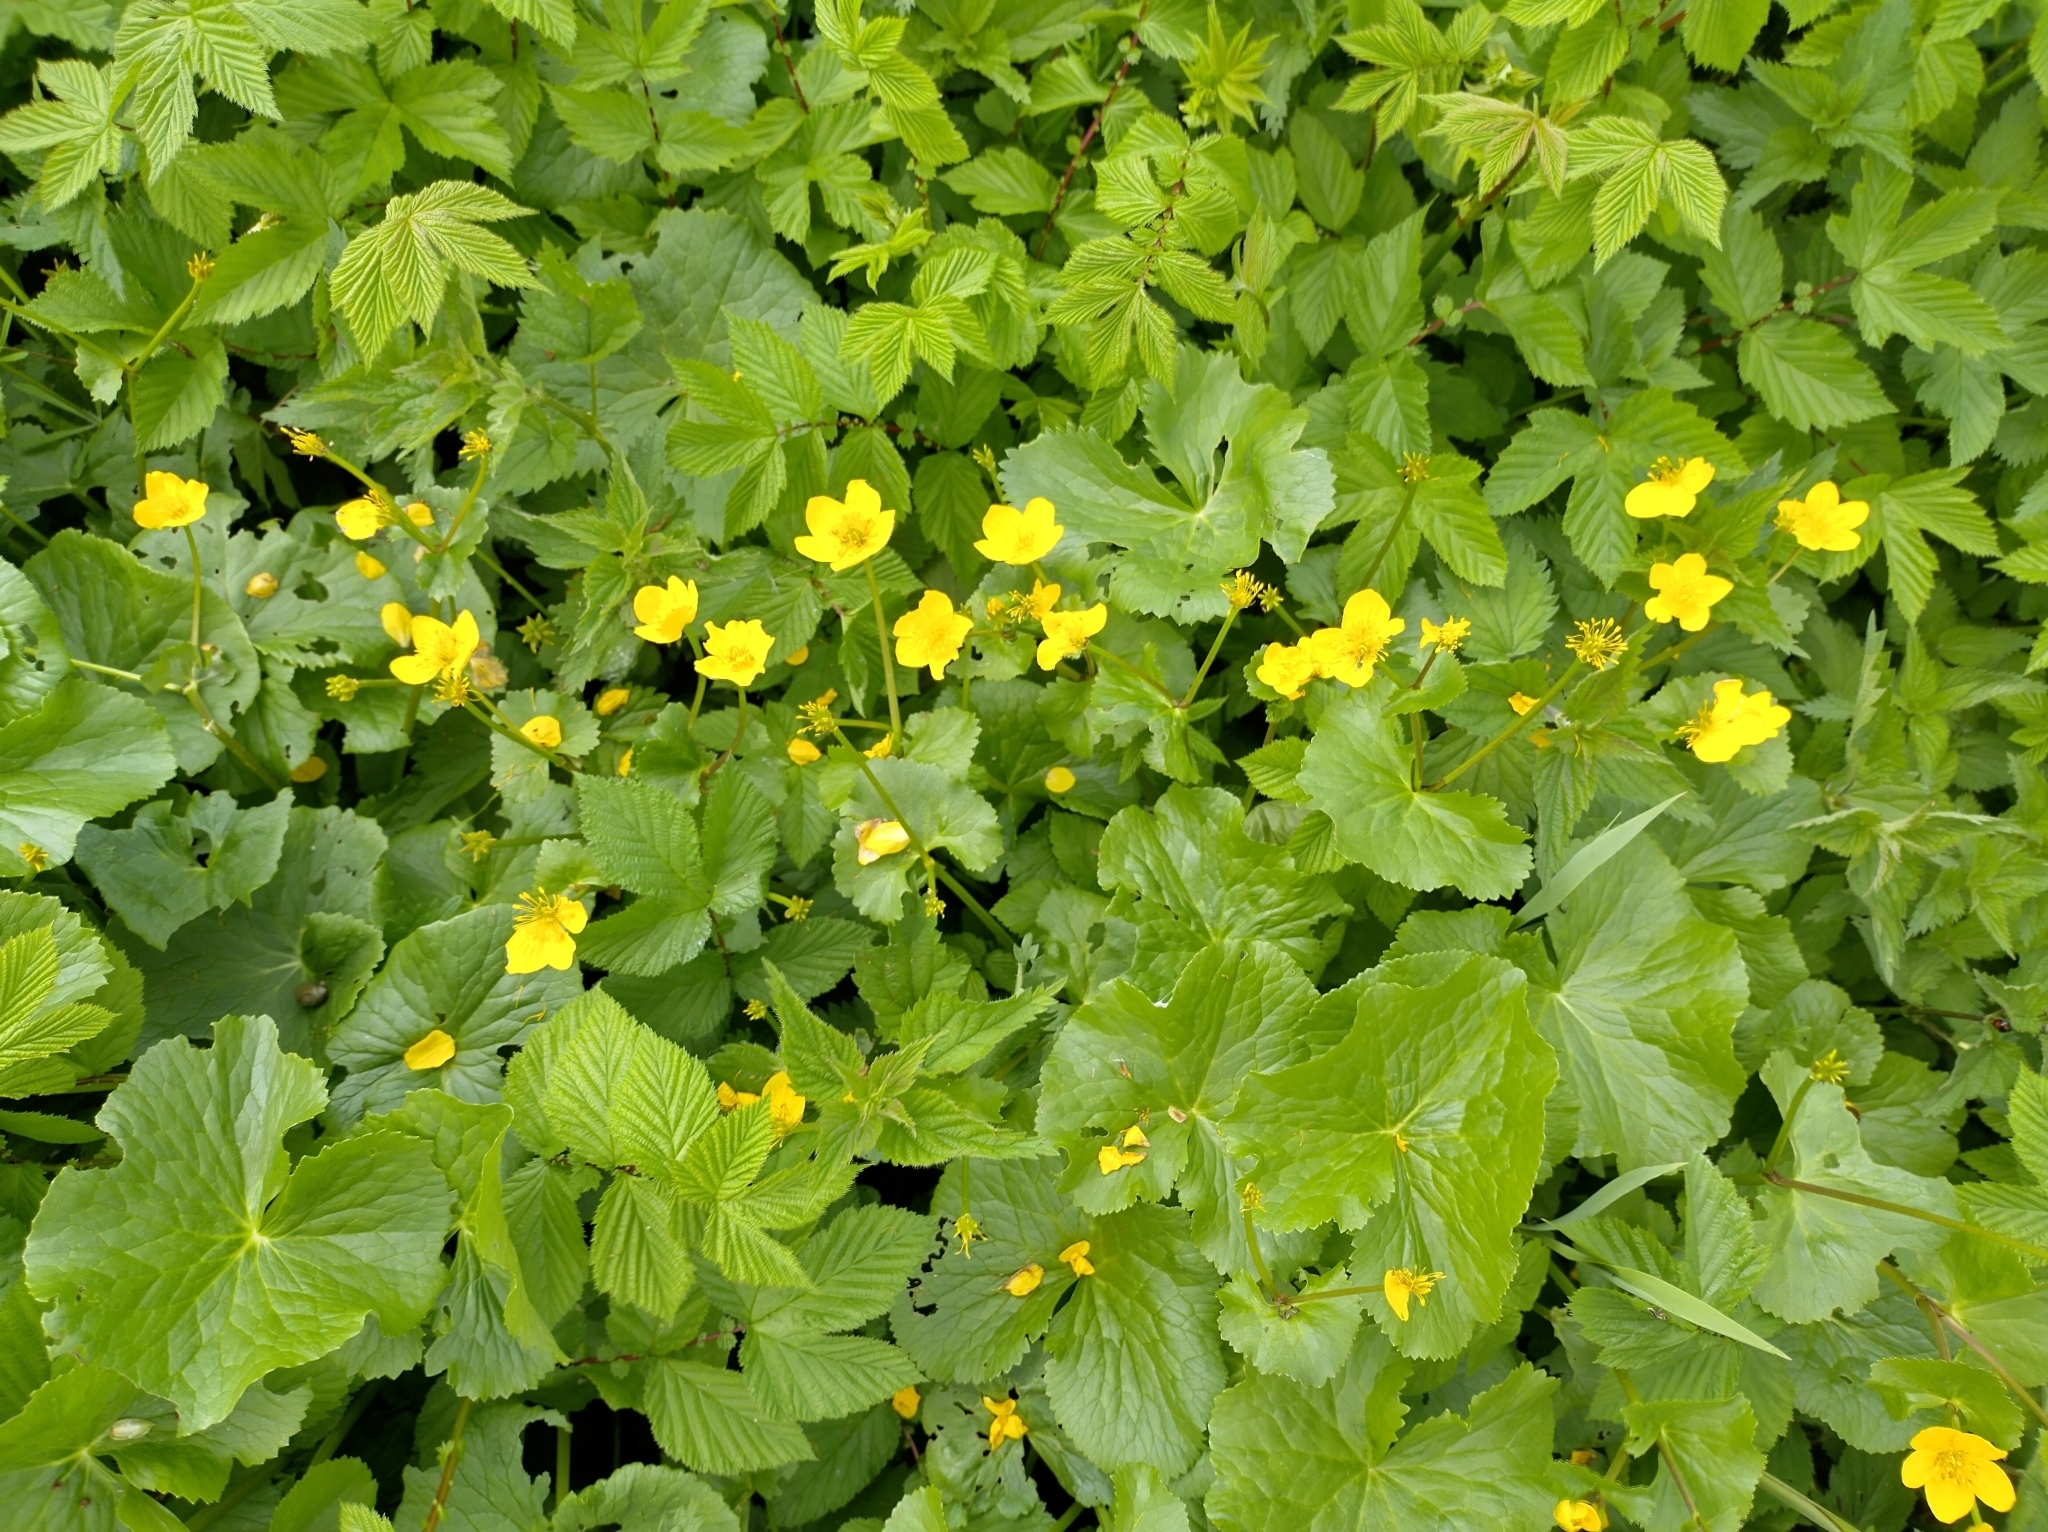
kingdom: Plantae
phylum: Tracheophyta
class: Magnoliopsida
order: Ranunculales
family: Ranunculaceae
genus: Caltha
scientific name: Caltha palustris
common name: Marsh marigold
